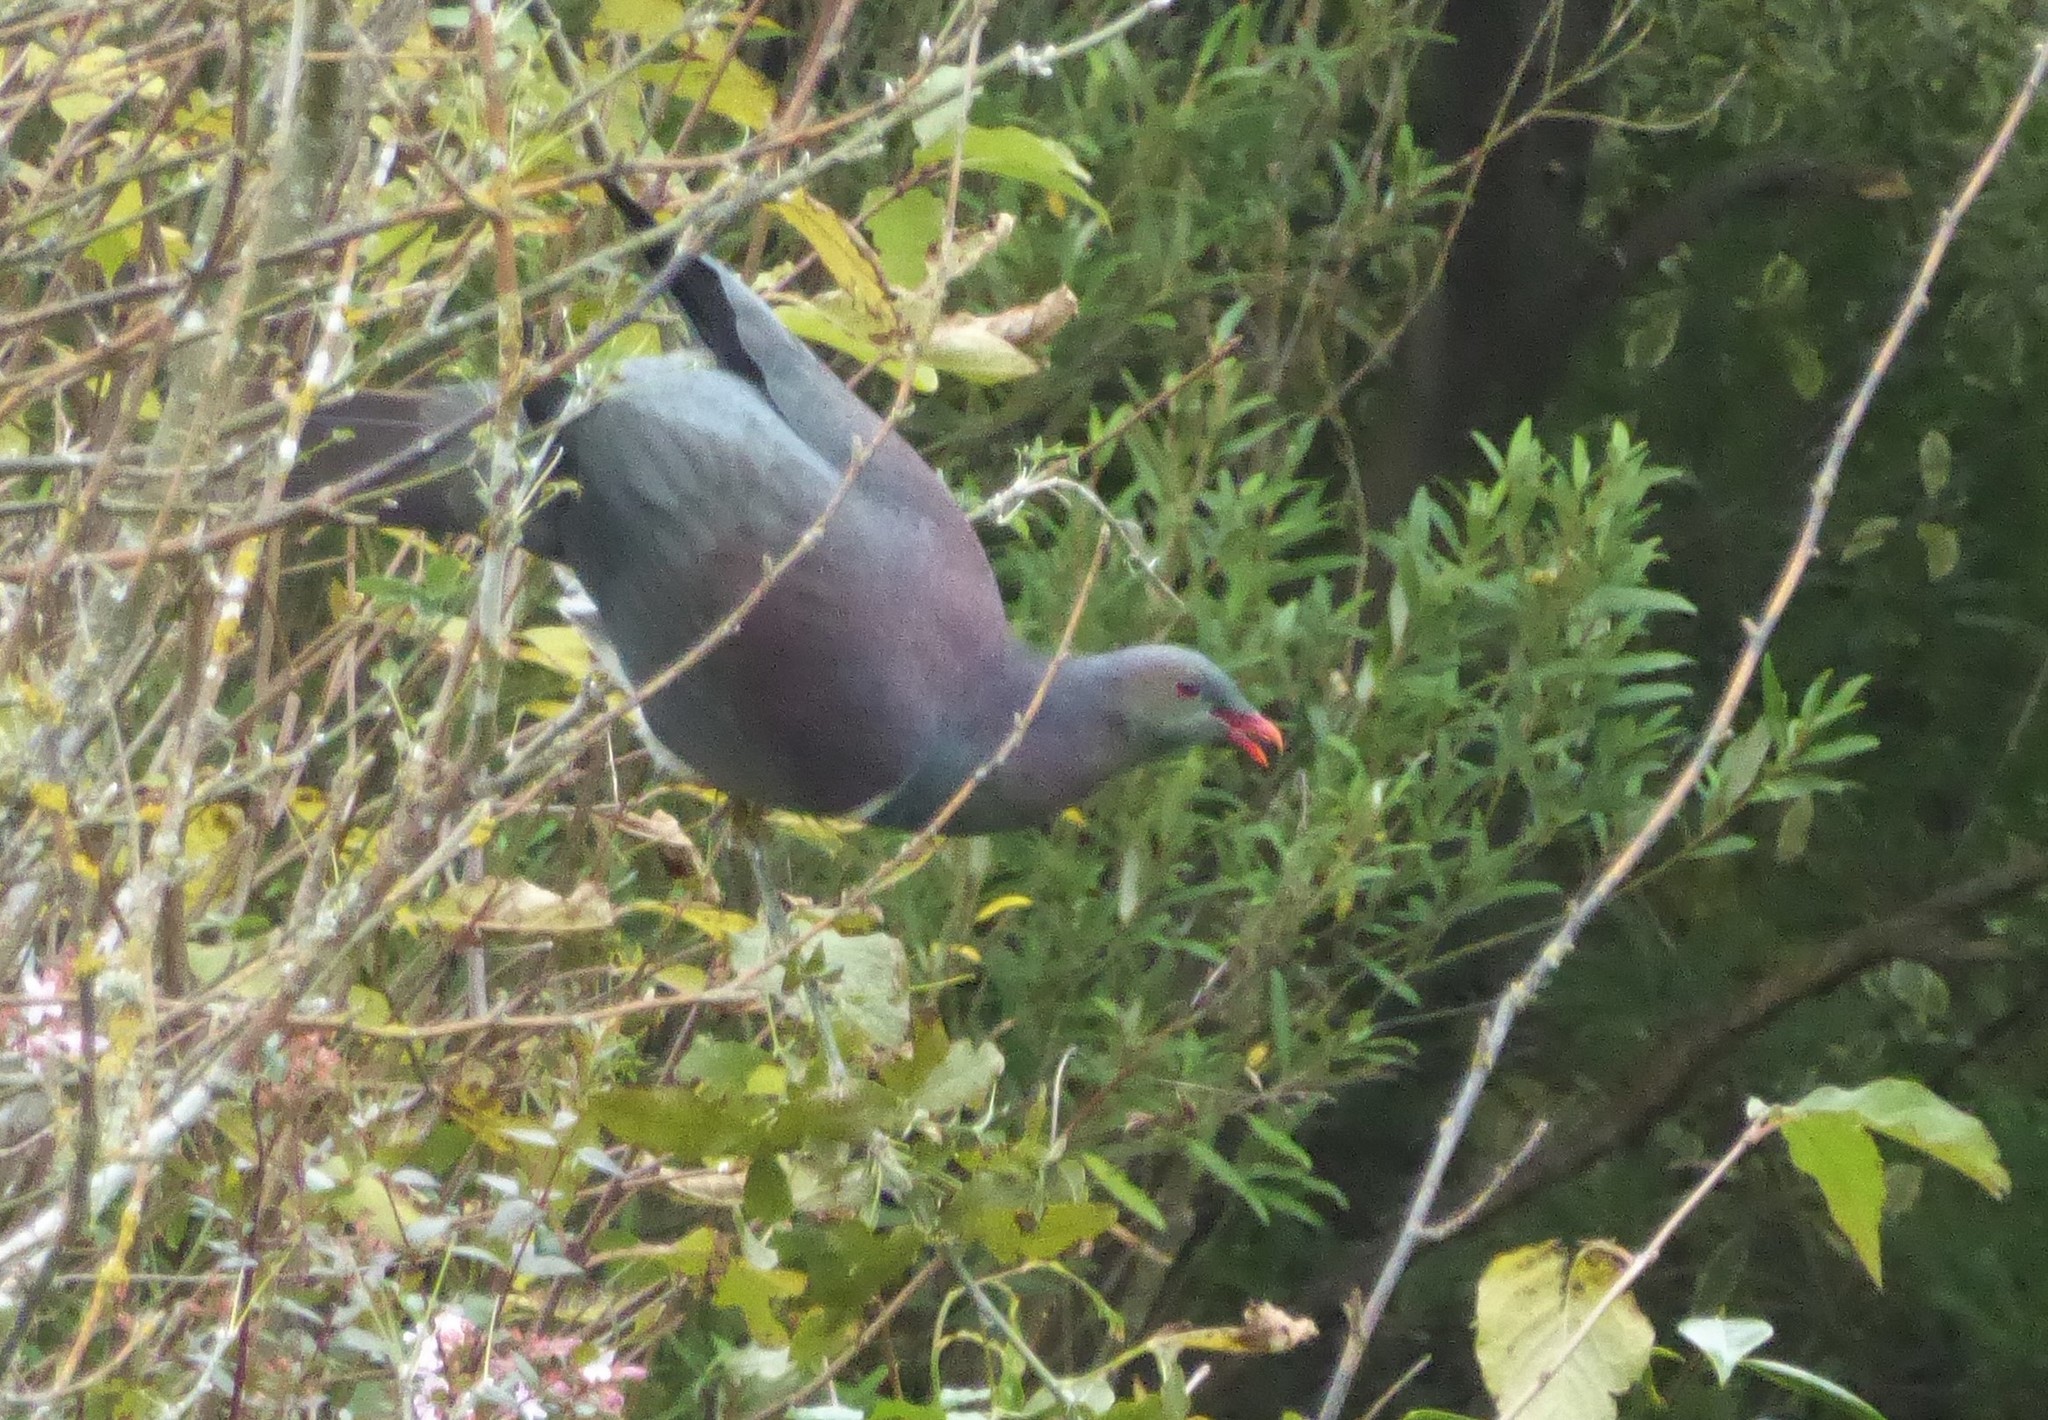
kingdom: Animalia
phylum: Chordata
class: Aves
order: Columbiformes
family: Columbidae
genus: Hemiphaga
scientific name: Hemiphaga novaeseelandiae
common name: New zealand pigeon
